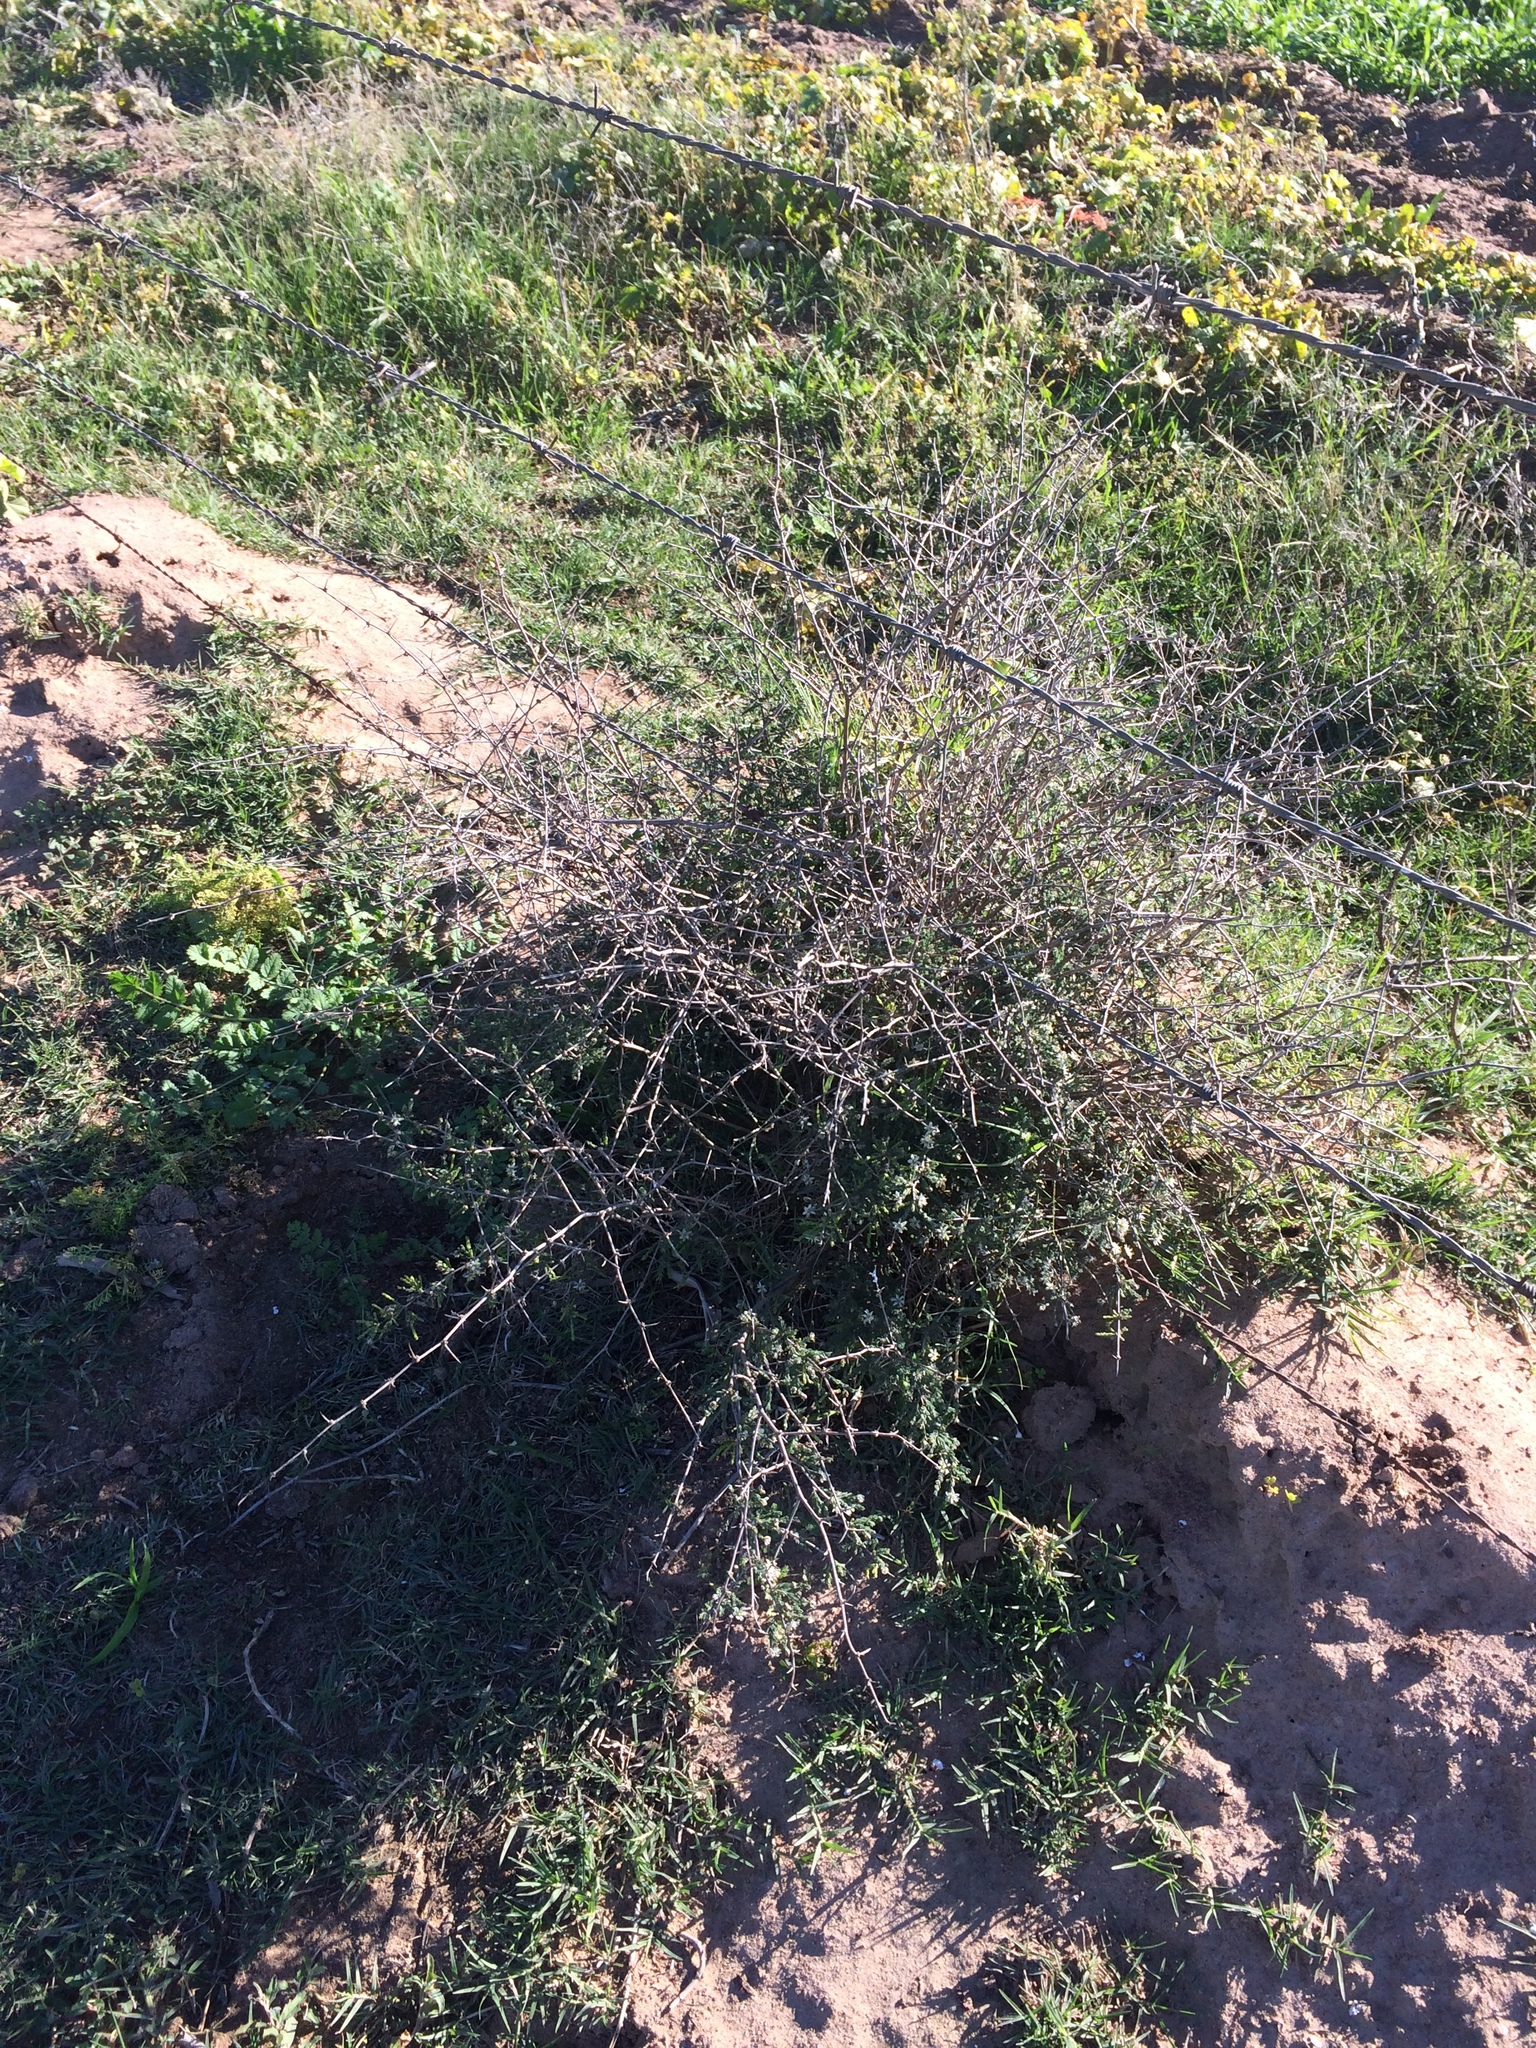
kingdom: Plantae
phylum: Tracheophyta
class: Liliopsida
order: Asparagales
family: Asparagaceae
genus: Asparagus
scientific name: Asparagus capensis
